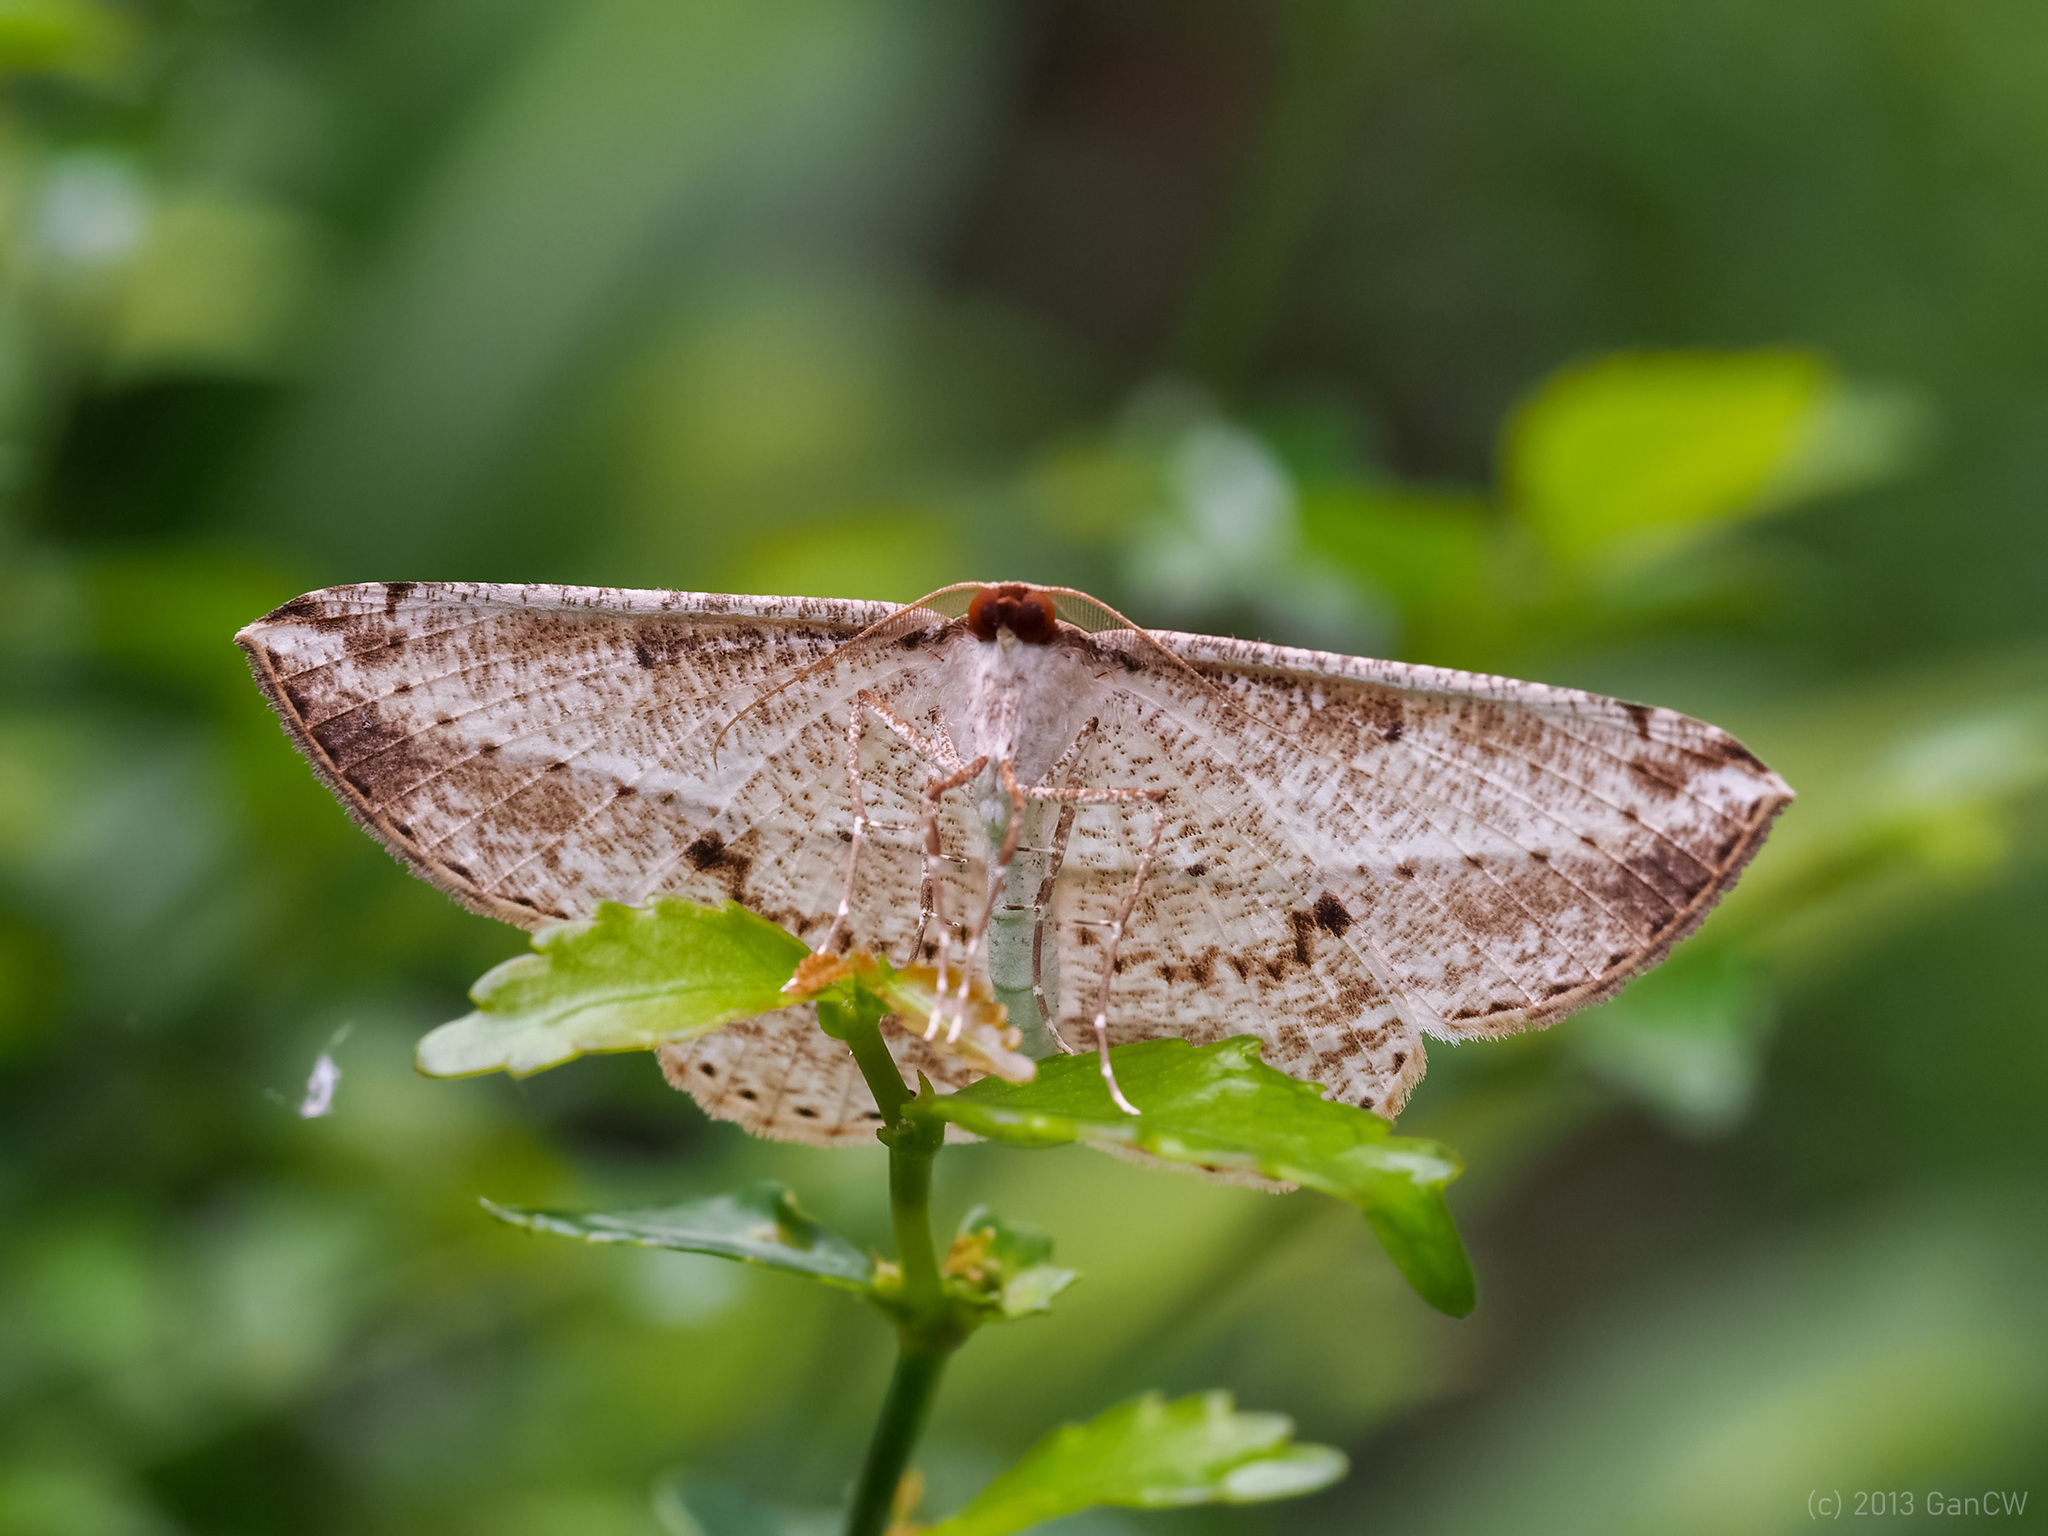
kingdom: Animalia
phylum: Arthropoda
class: Insecta
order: Lepidoptera
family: Geometridae
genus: Heteralex
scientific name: Heteralex rectilineata
